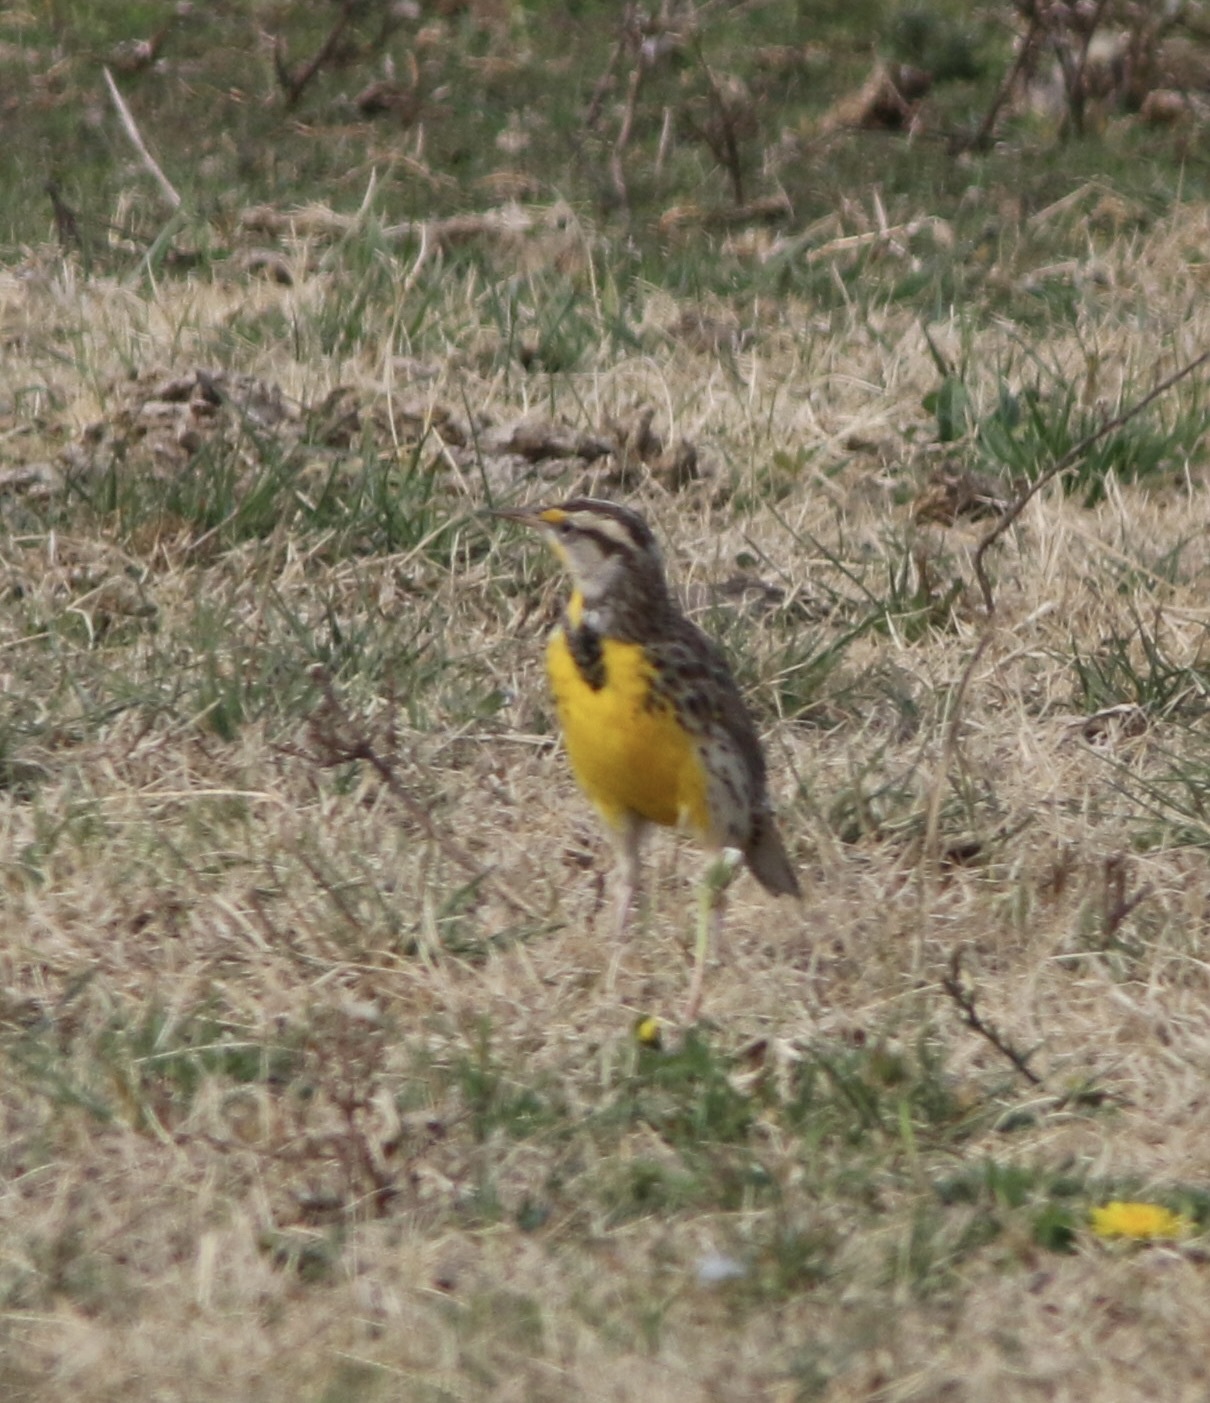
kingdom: Animalia
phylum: Chordata
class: Aves
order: Passeriformes
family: Icteridae
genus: Sturnella
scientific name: Sturnella neglecta
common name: Western meadowlark
